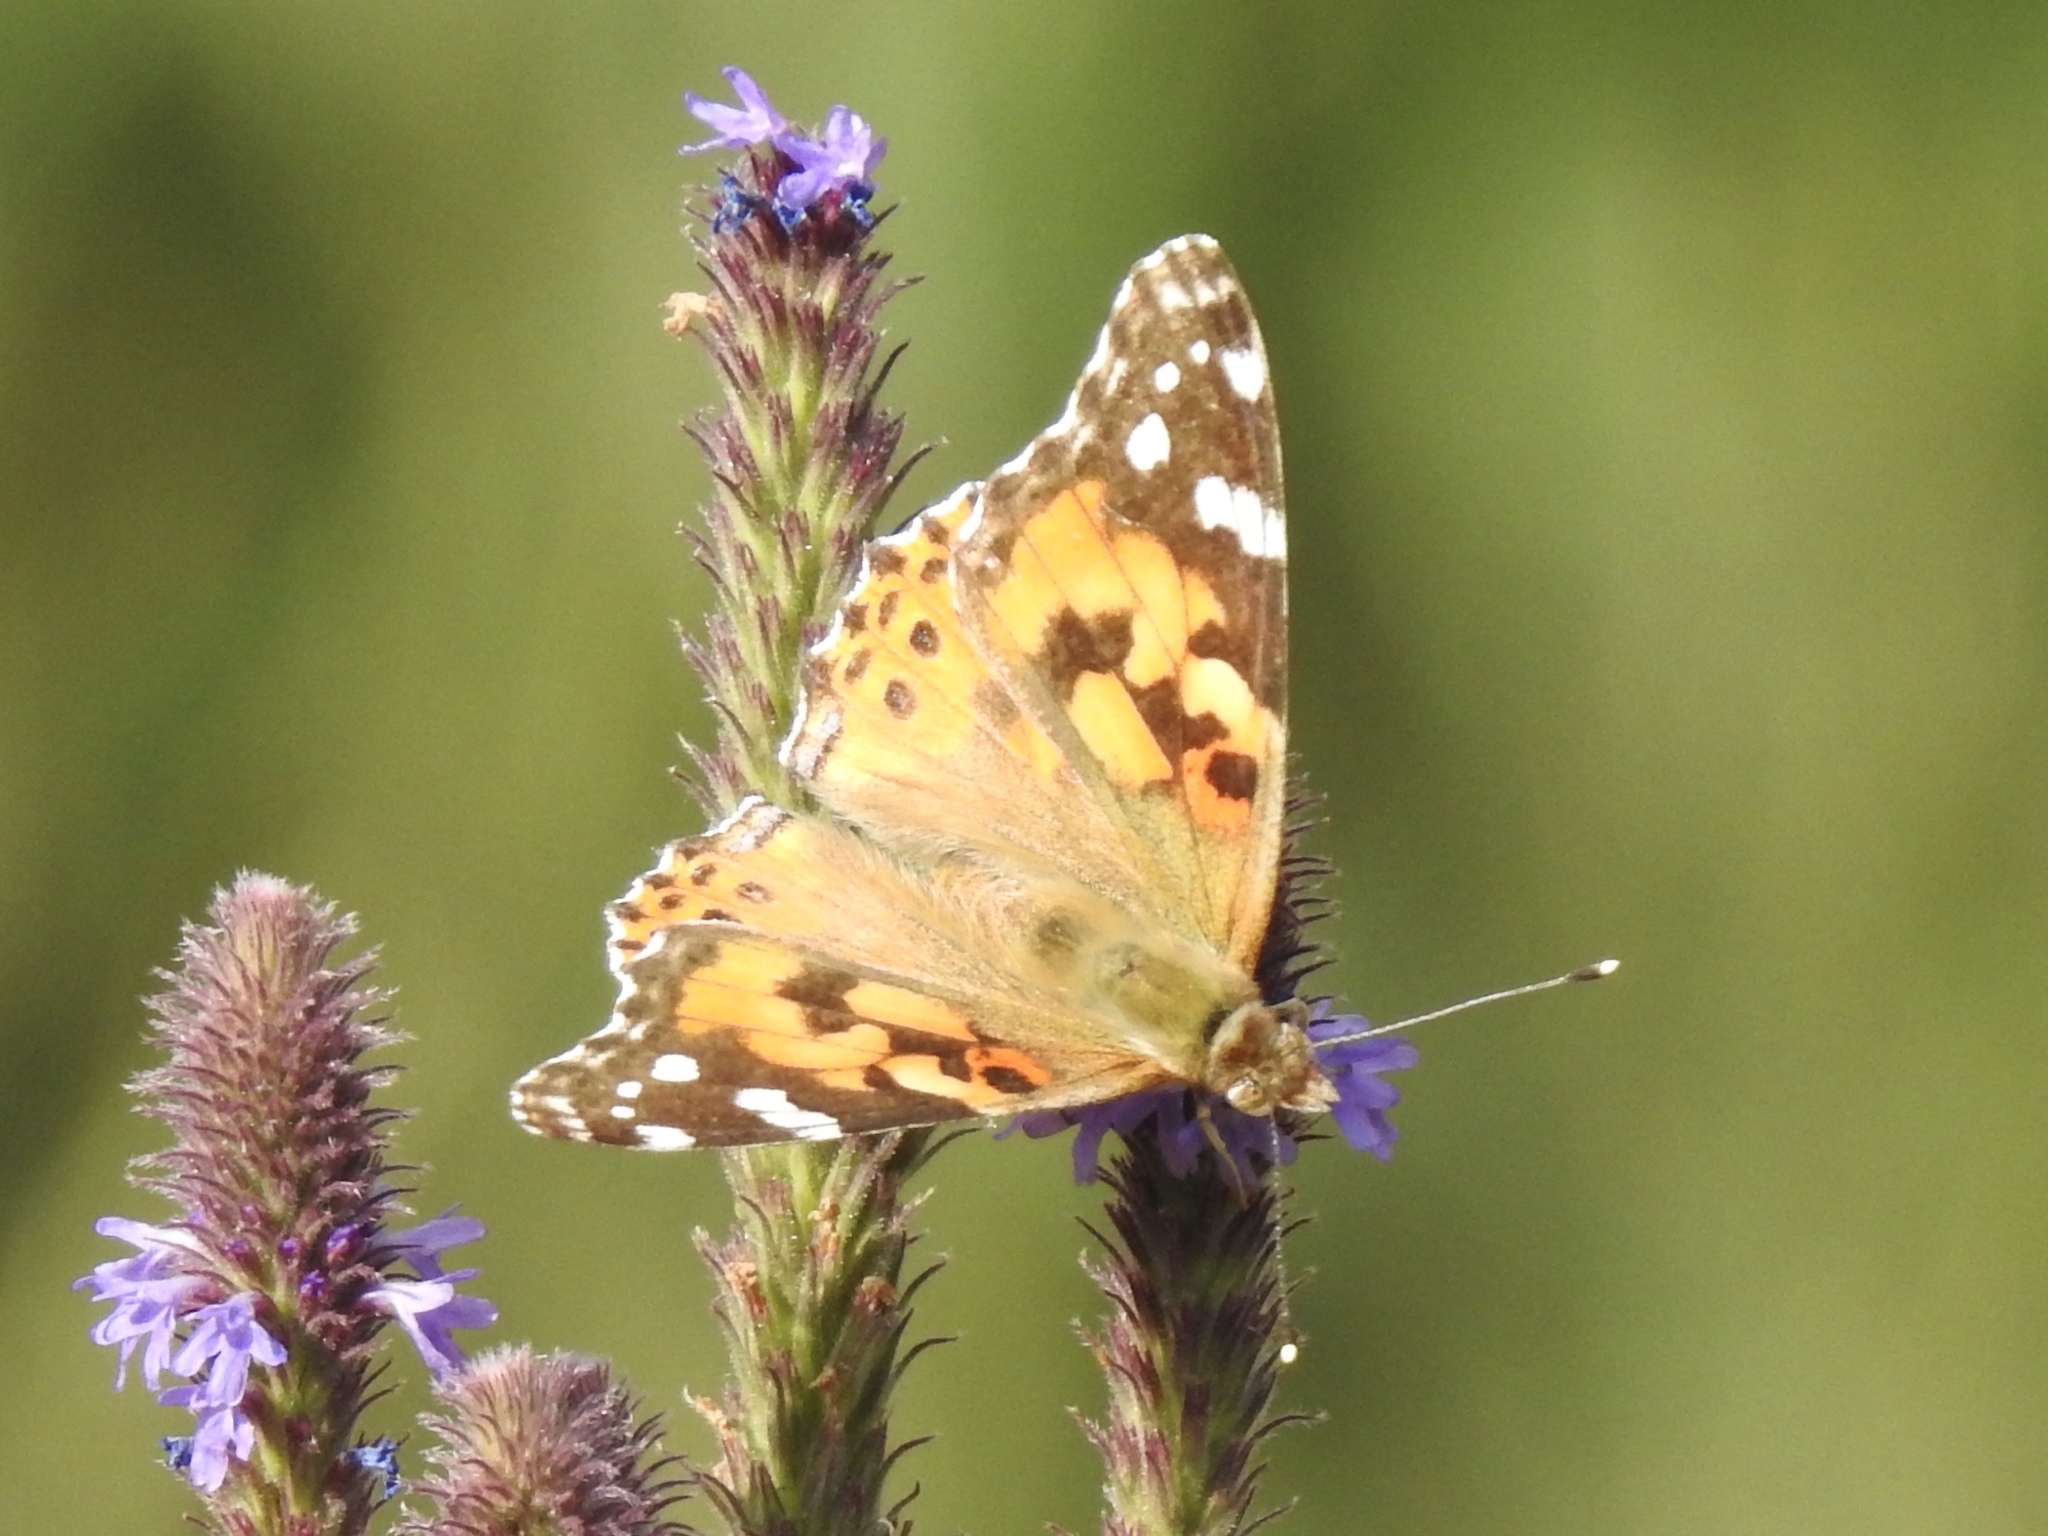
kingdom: Animalia
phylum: Arthropoda
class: Insecta
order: Lepidoptera
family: Nymphalidae
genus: Vanessa
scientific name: Vanessa cardui
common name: Painted lady
